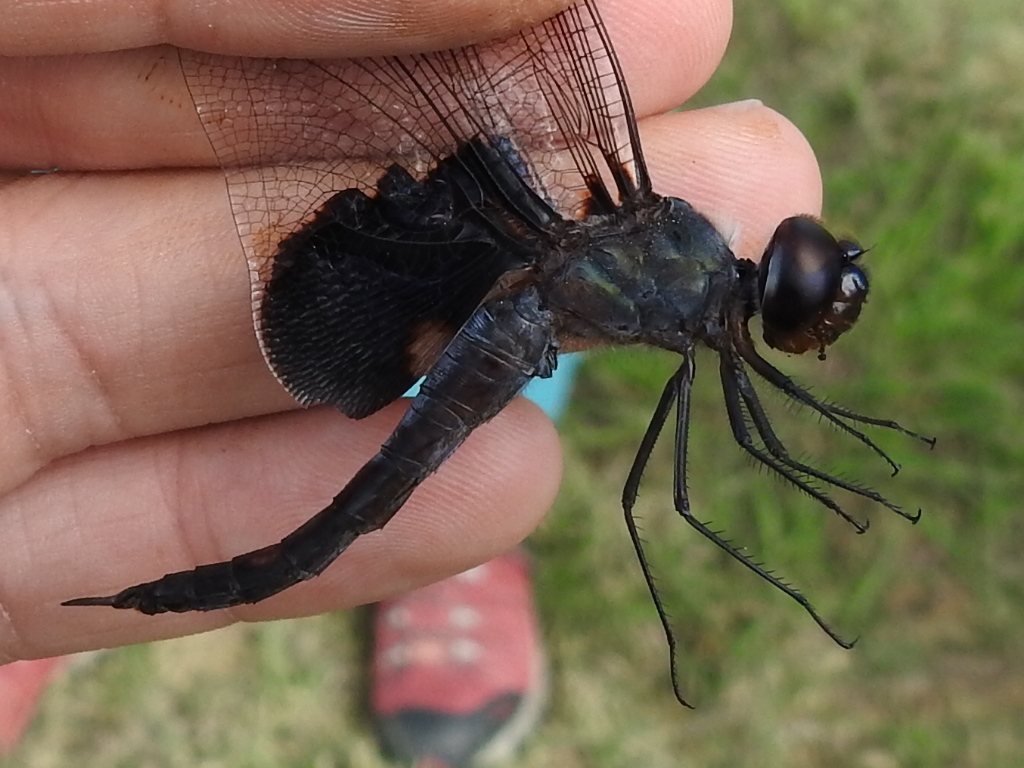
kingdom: Animalia
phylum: Arthropoda
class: Insecta
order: Odonata
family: Libellulidae
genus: Tramea
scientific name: Tramea lacerata
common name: Black saddlebags
